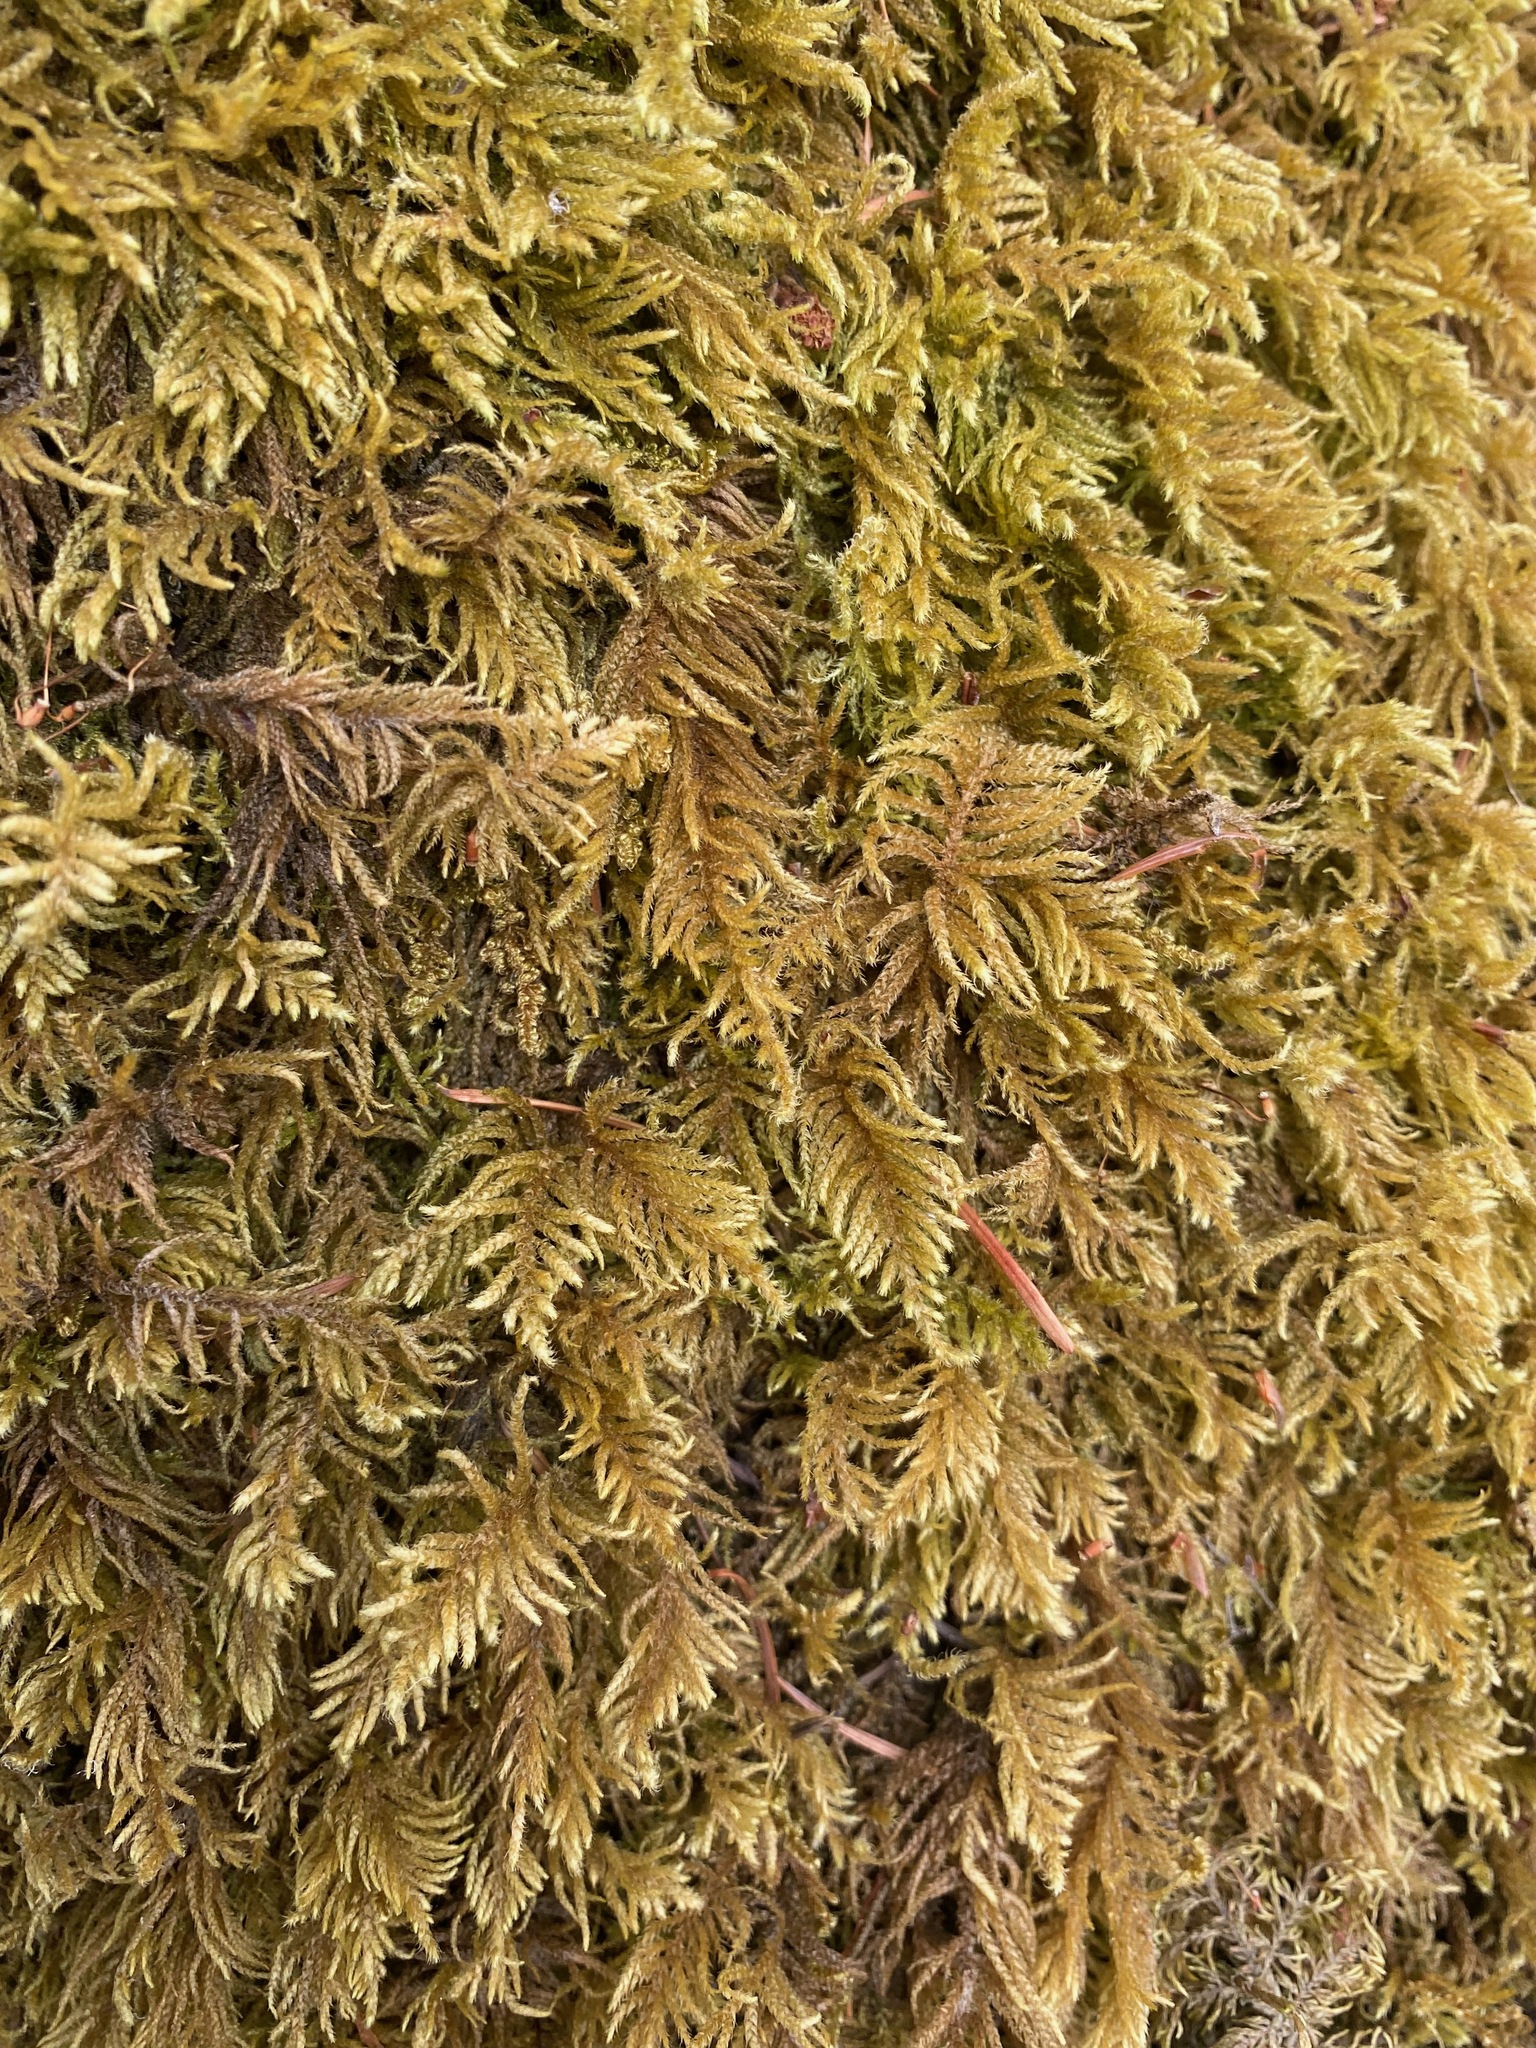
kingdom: Plantae
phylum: Bryophyta
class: Bryopsida
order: Hypnales
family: Brachytheciaceae
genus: Kindbergia
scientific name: Kindbergia oregana
